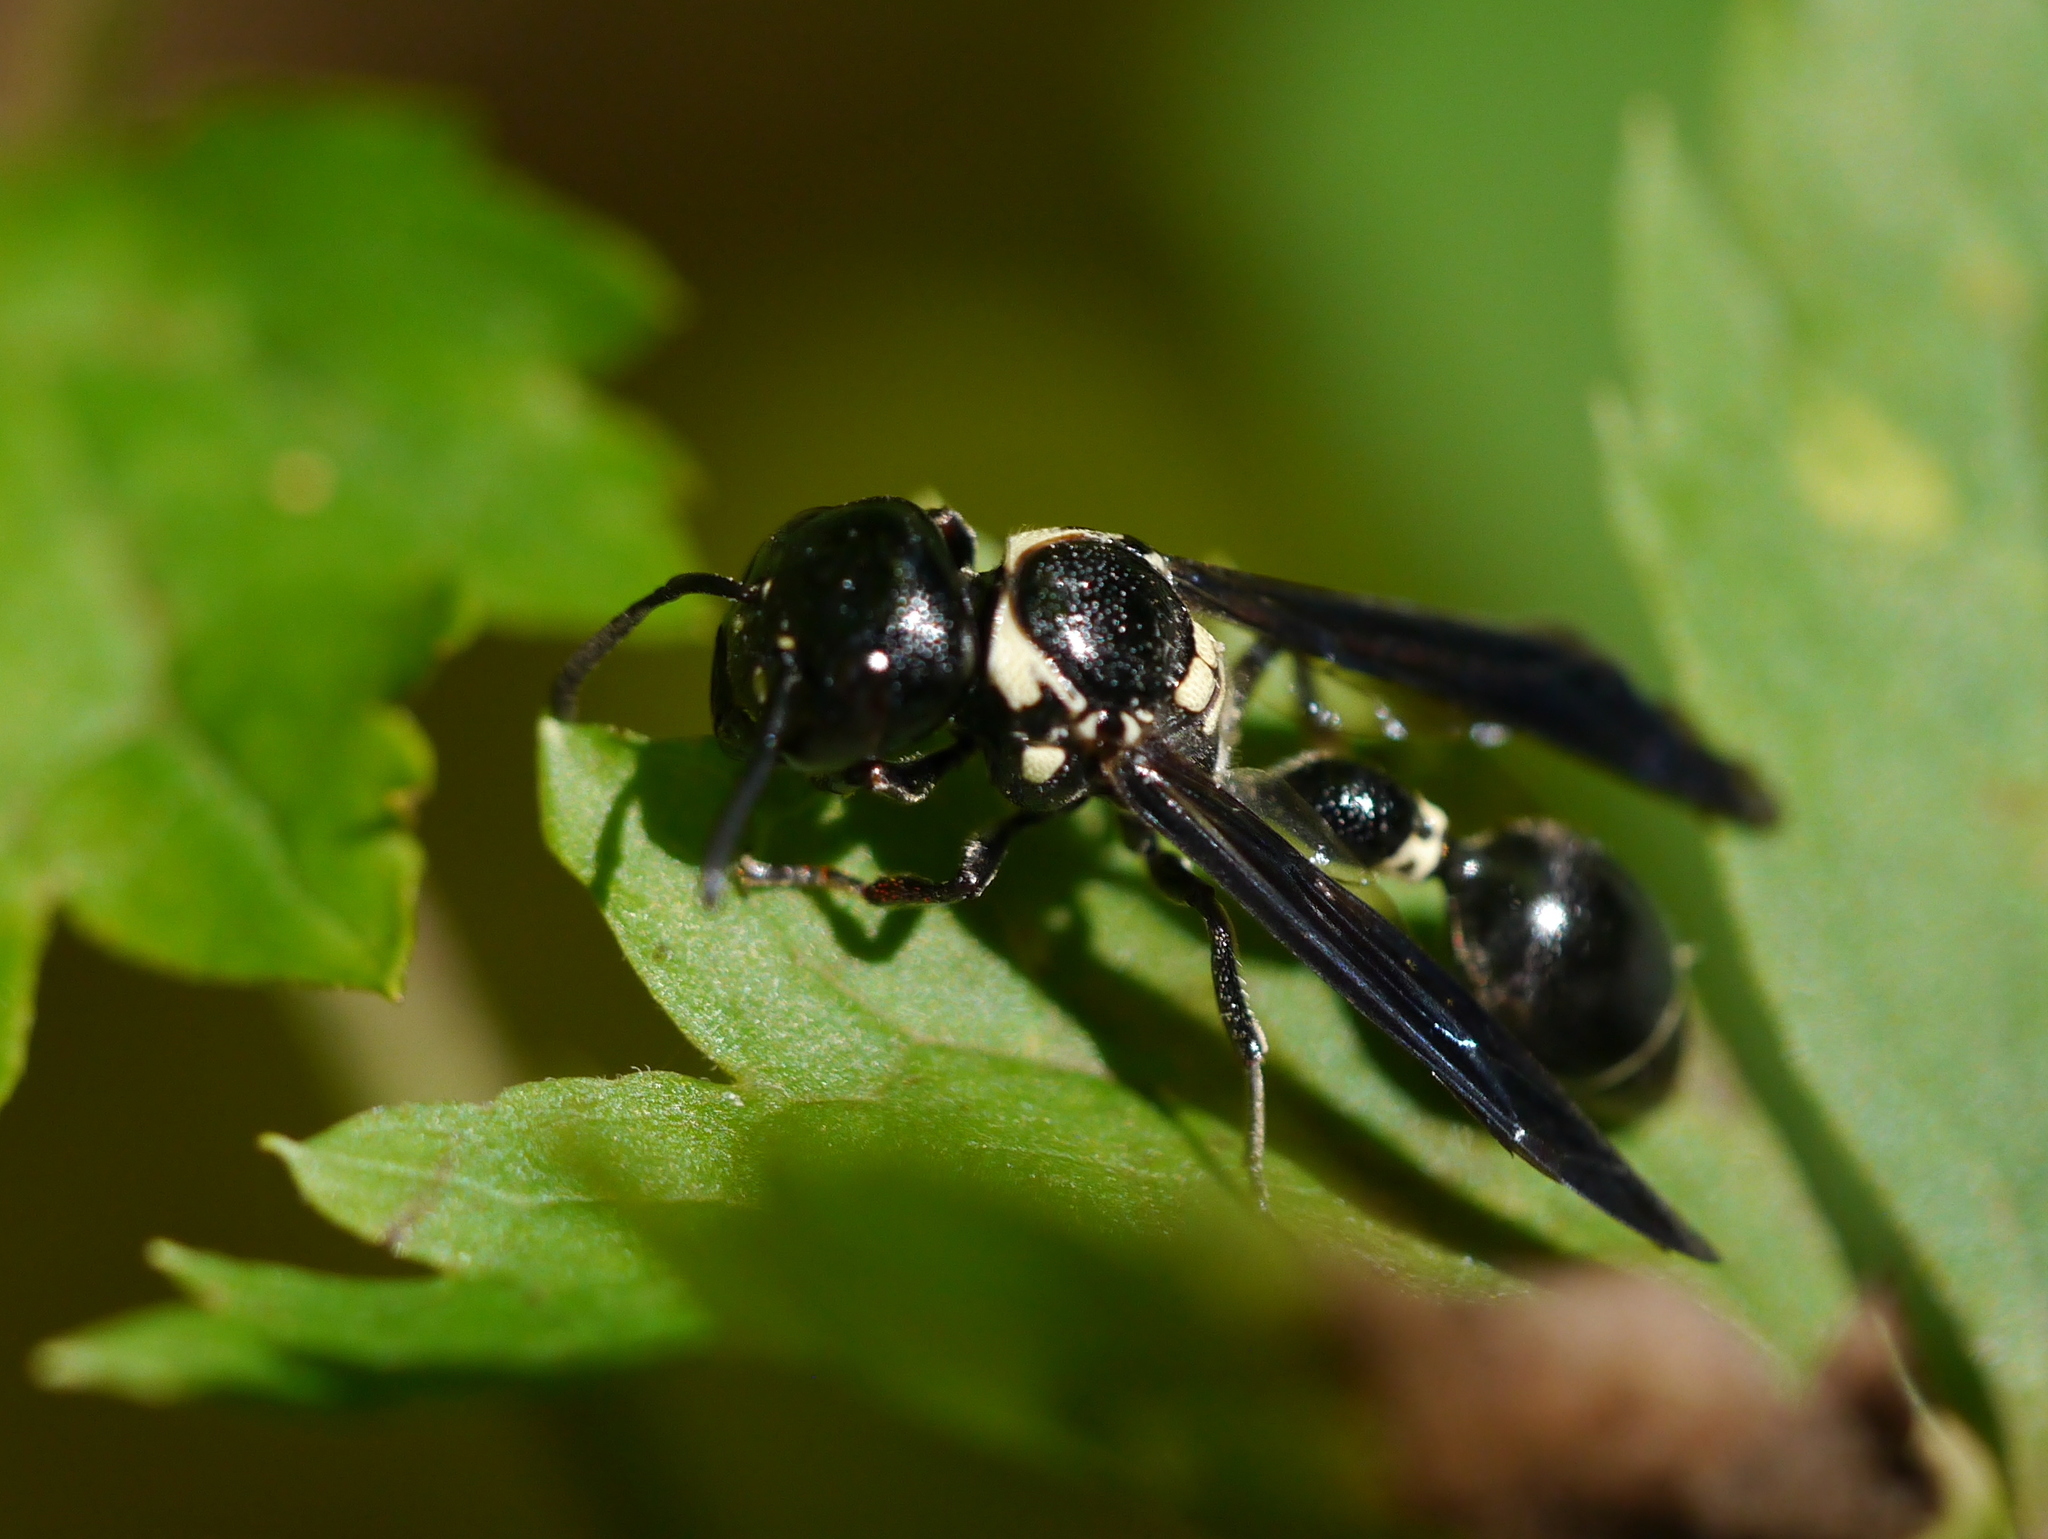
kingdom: Animalia
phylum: Arthropoda
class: Insecta
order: Hymenoptera
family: Eumenidae
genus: Zethus
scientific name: Zethus spinipes
